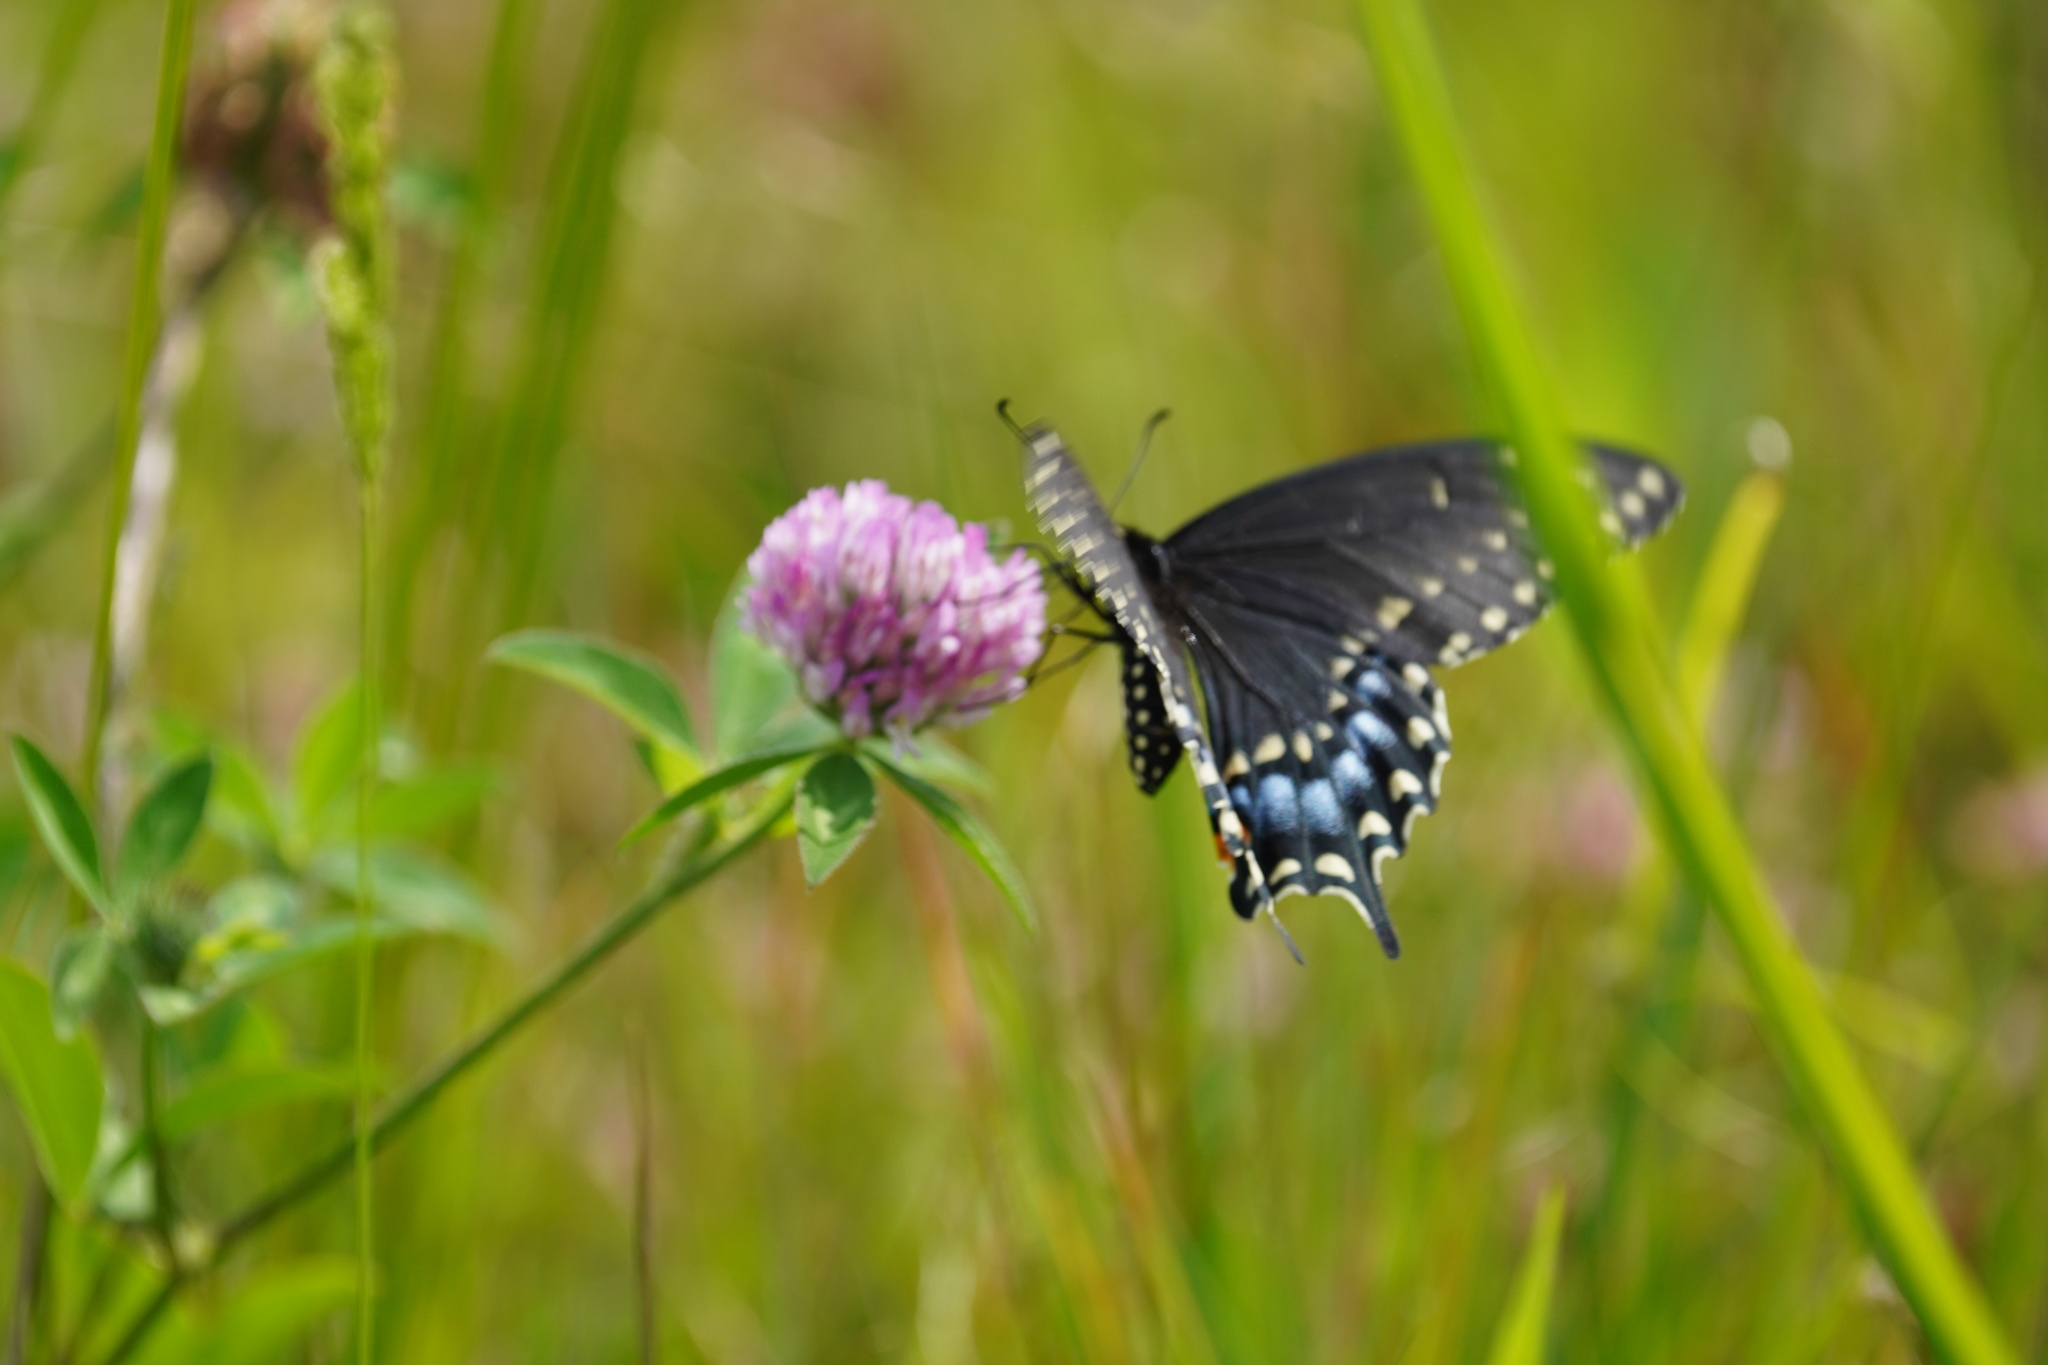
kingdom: Animalia
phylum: Arthropoda
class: Insecta
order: Lepidoptera
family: Papilionidae
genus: Papilio
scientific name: Papilio polyxenes
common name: Black swallowtail
